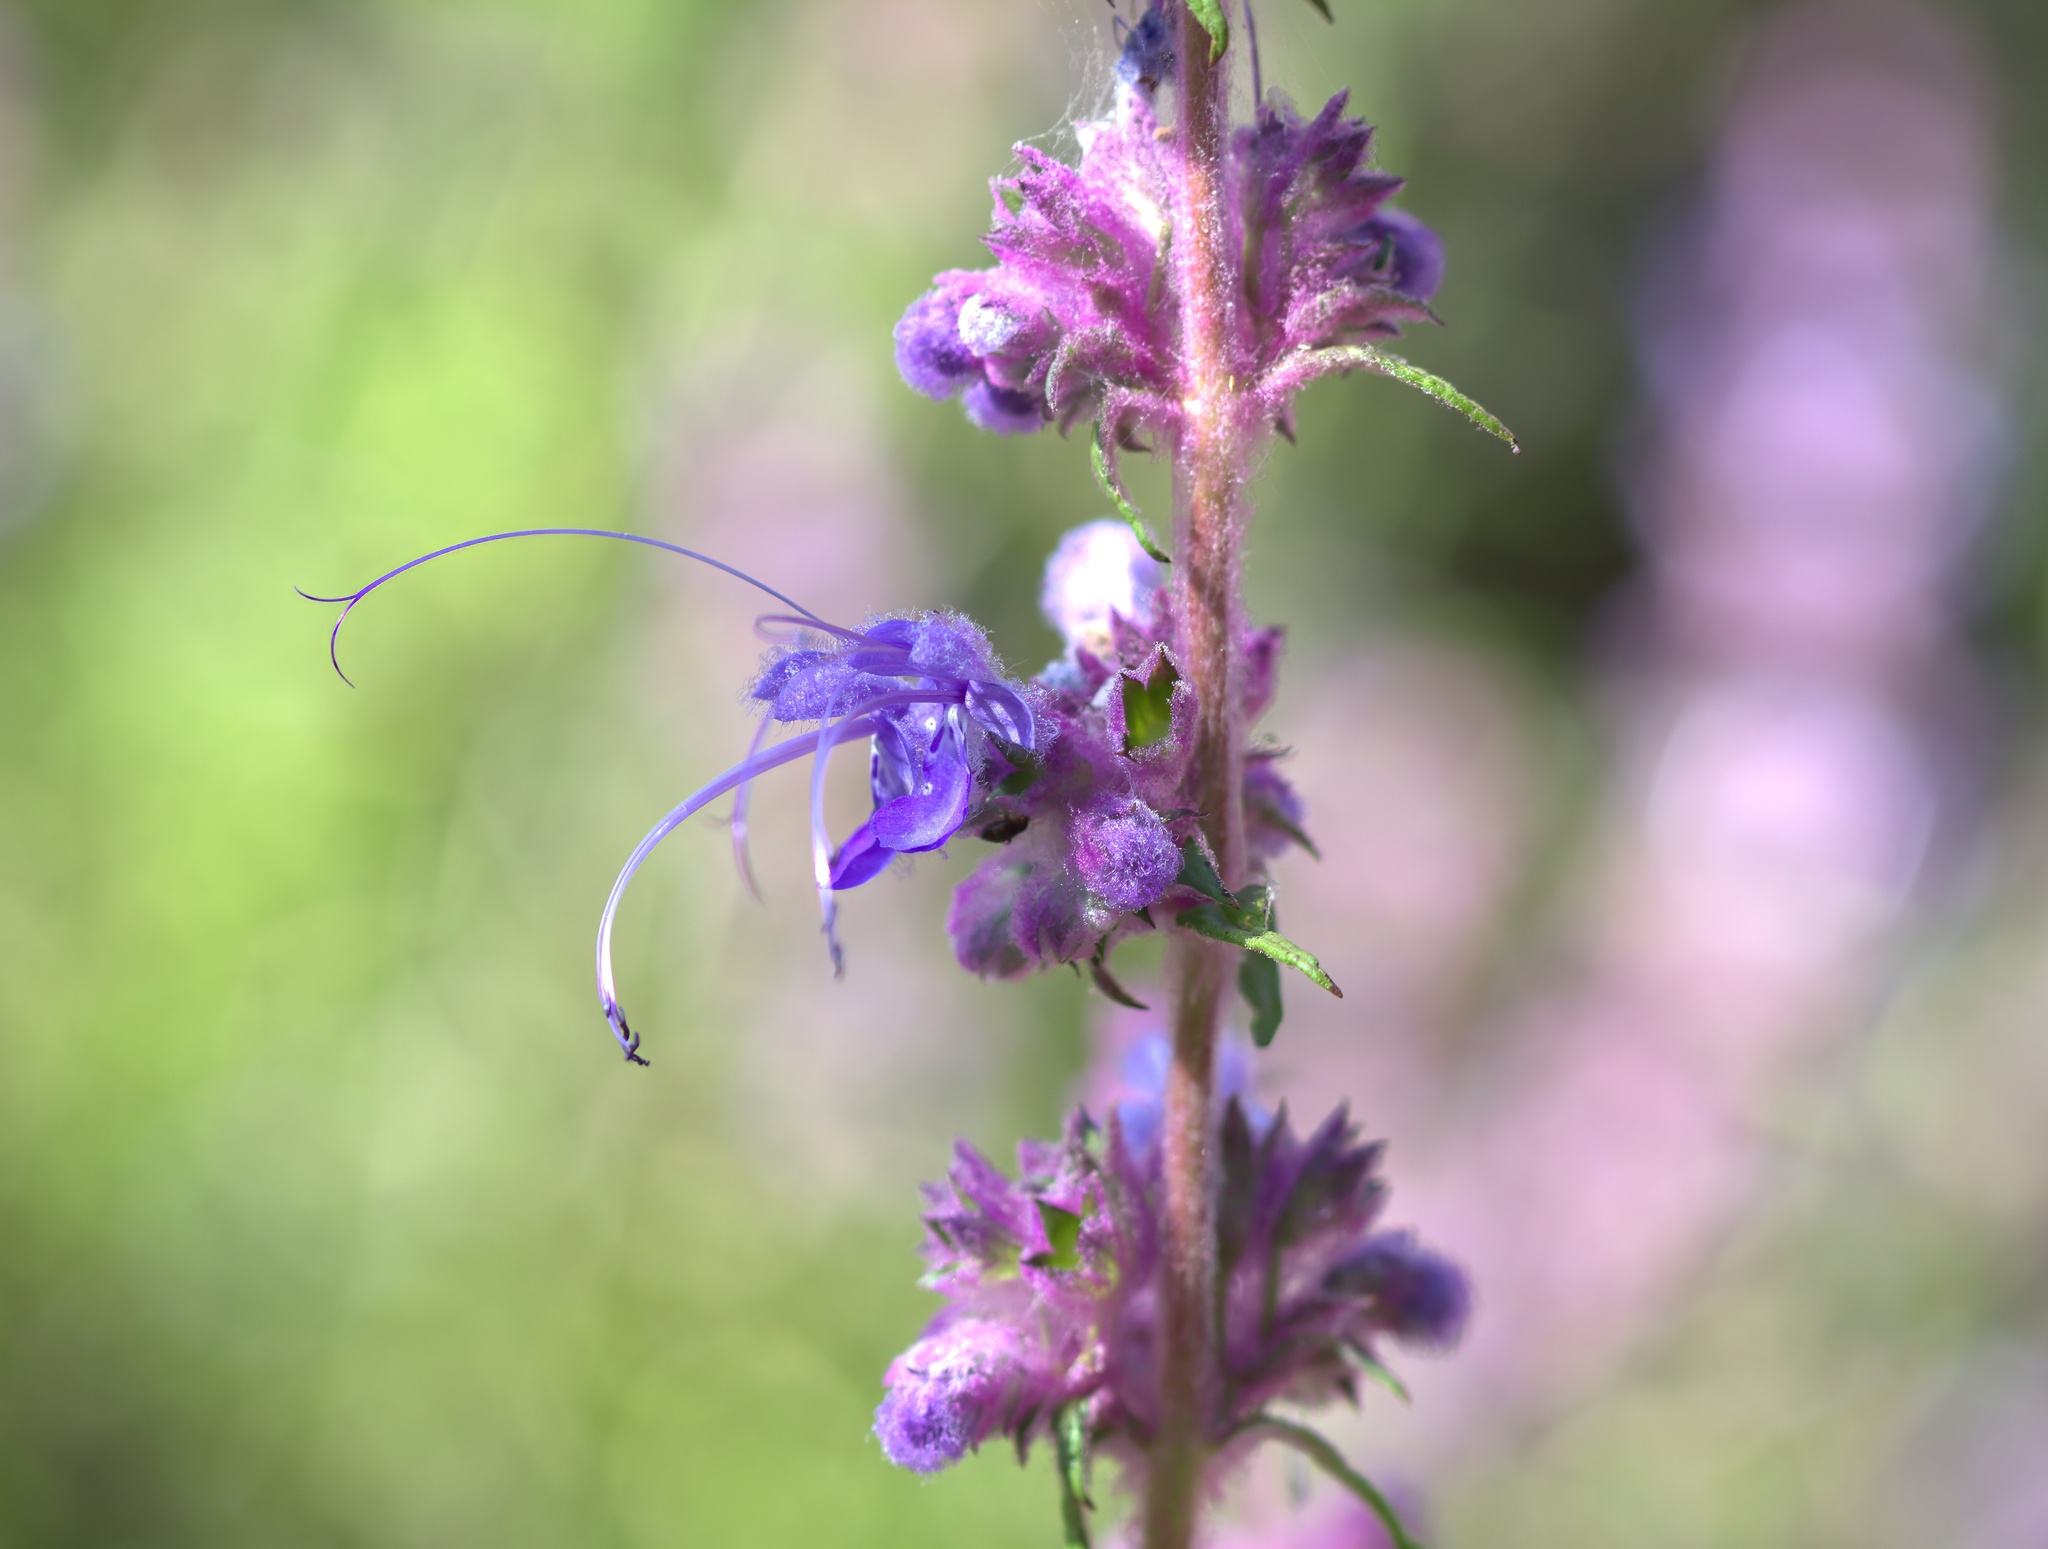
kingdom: Plantae
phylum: Tracheophyta
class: Magnoliopsida
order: Lamiales
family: Lamiaceae
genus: Trichostema
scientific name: Trichostema lanatum
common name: Woolly bluecurls
